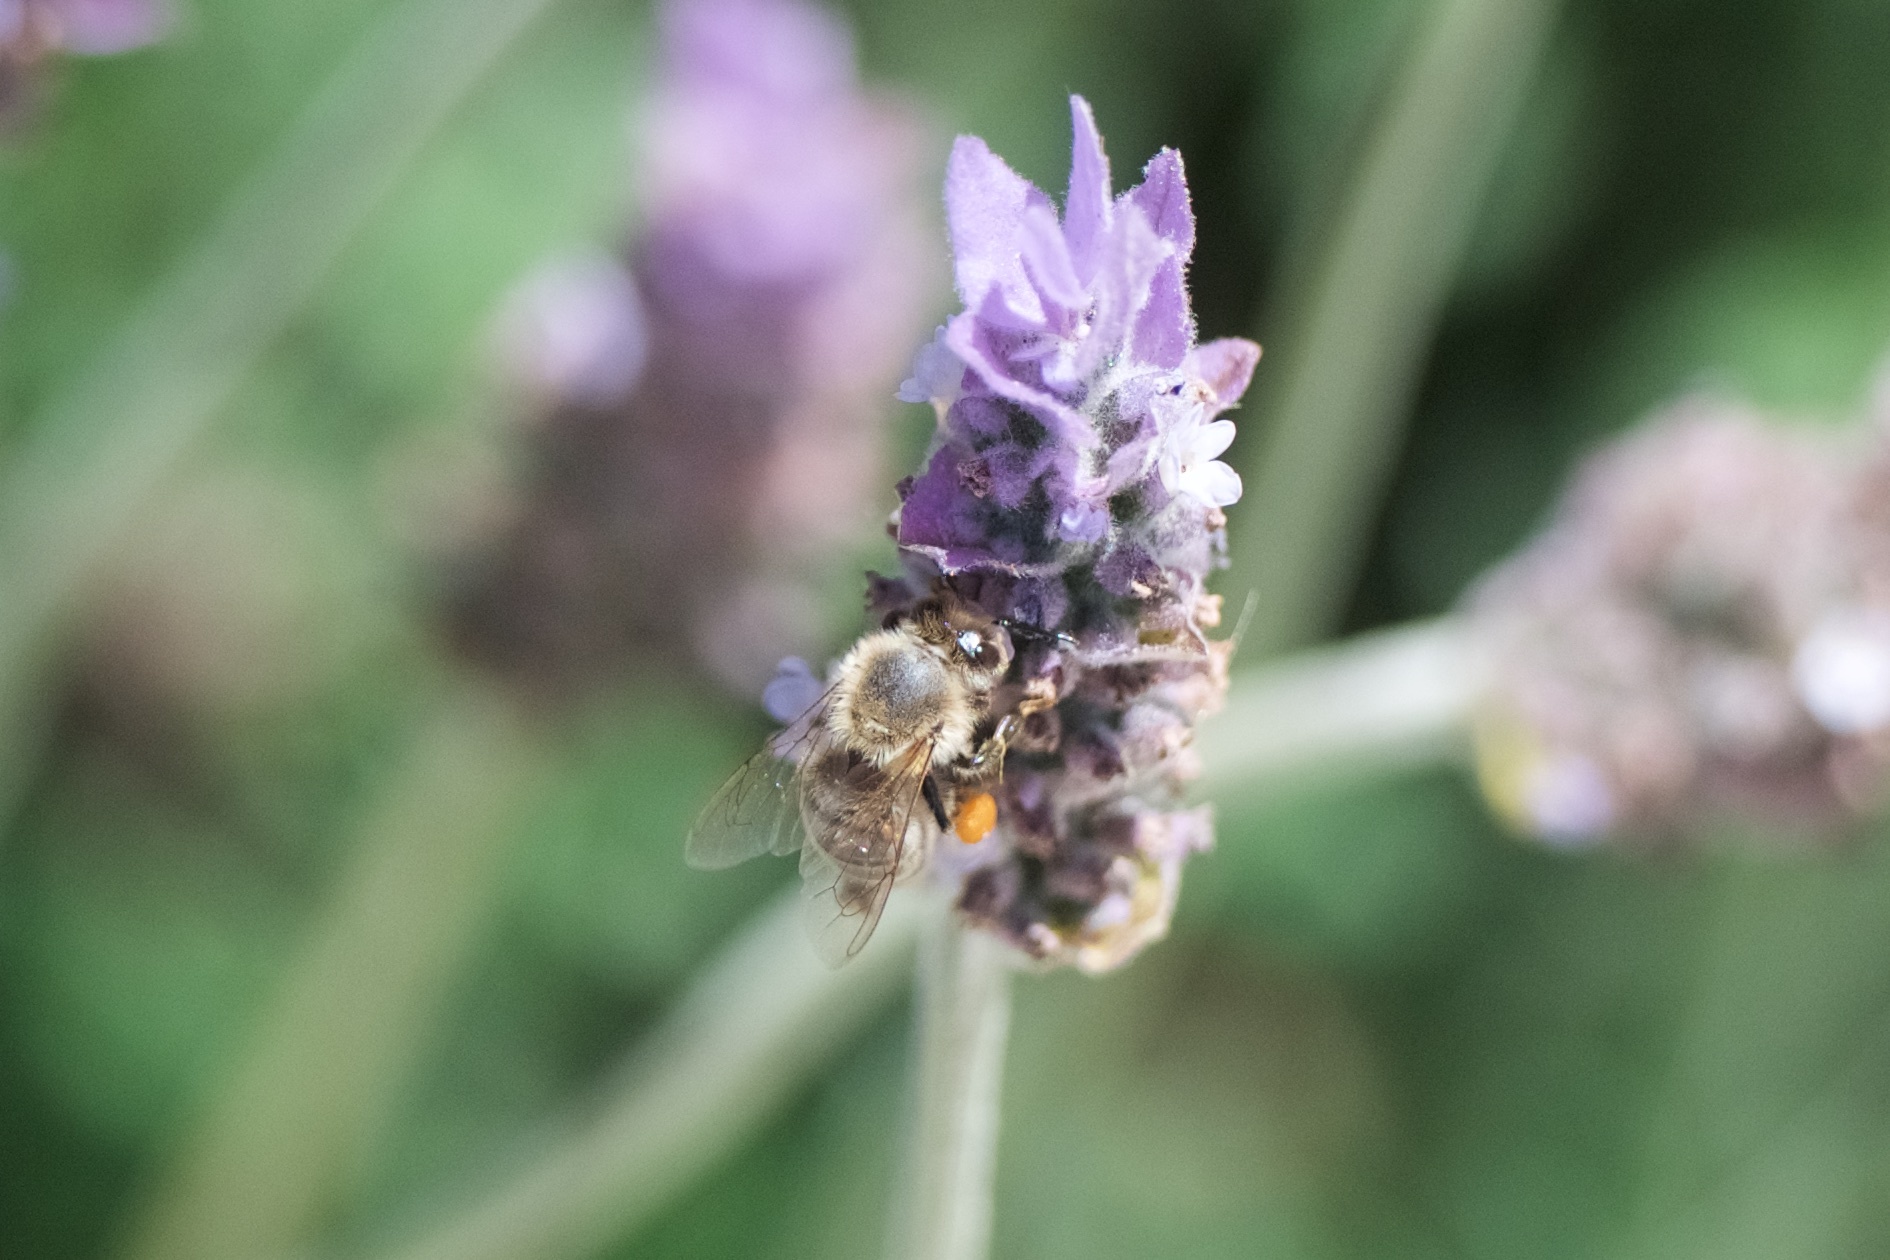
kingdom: Animalia
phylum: Arthropoda
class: Insecta
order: Hymenoptera
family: Apidae
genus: Apis
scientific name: Apis mellifera
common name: Honey bee
